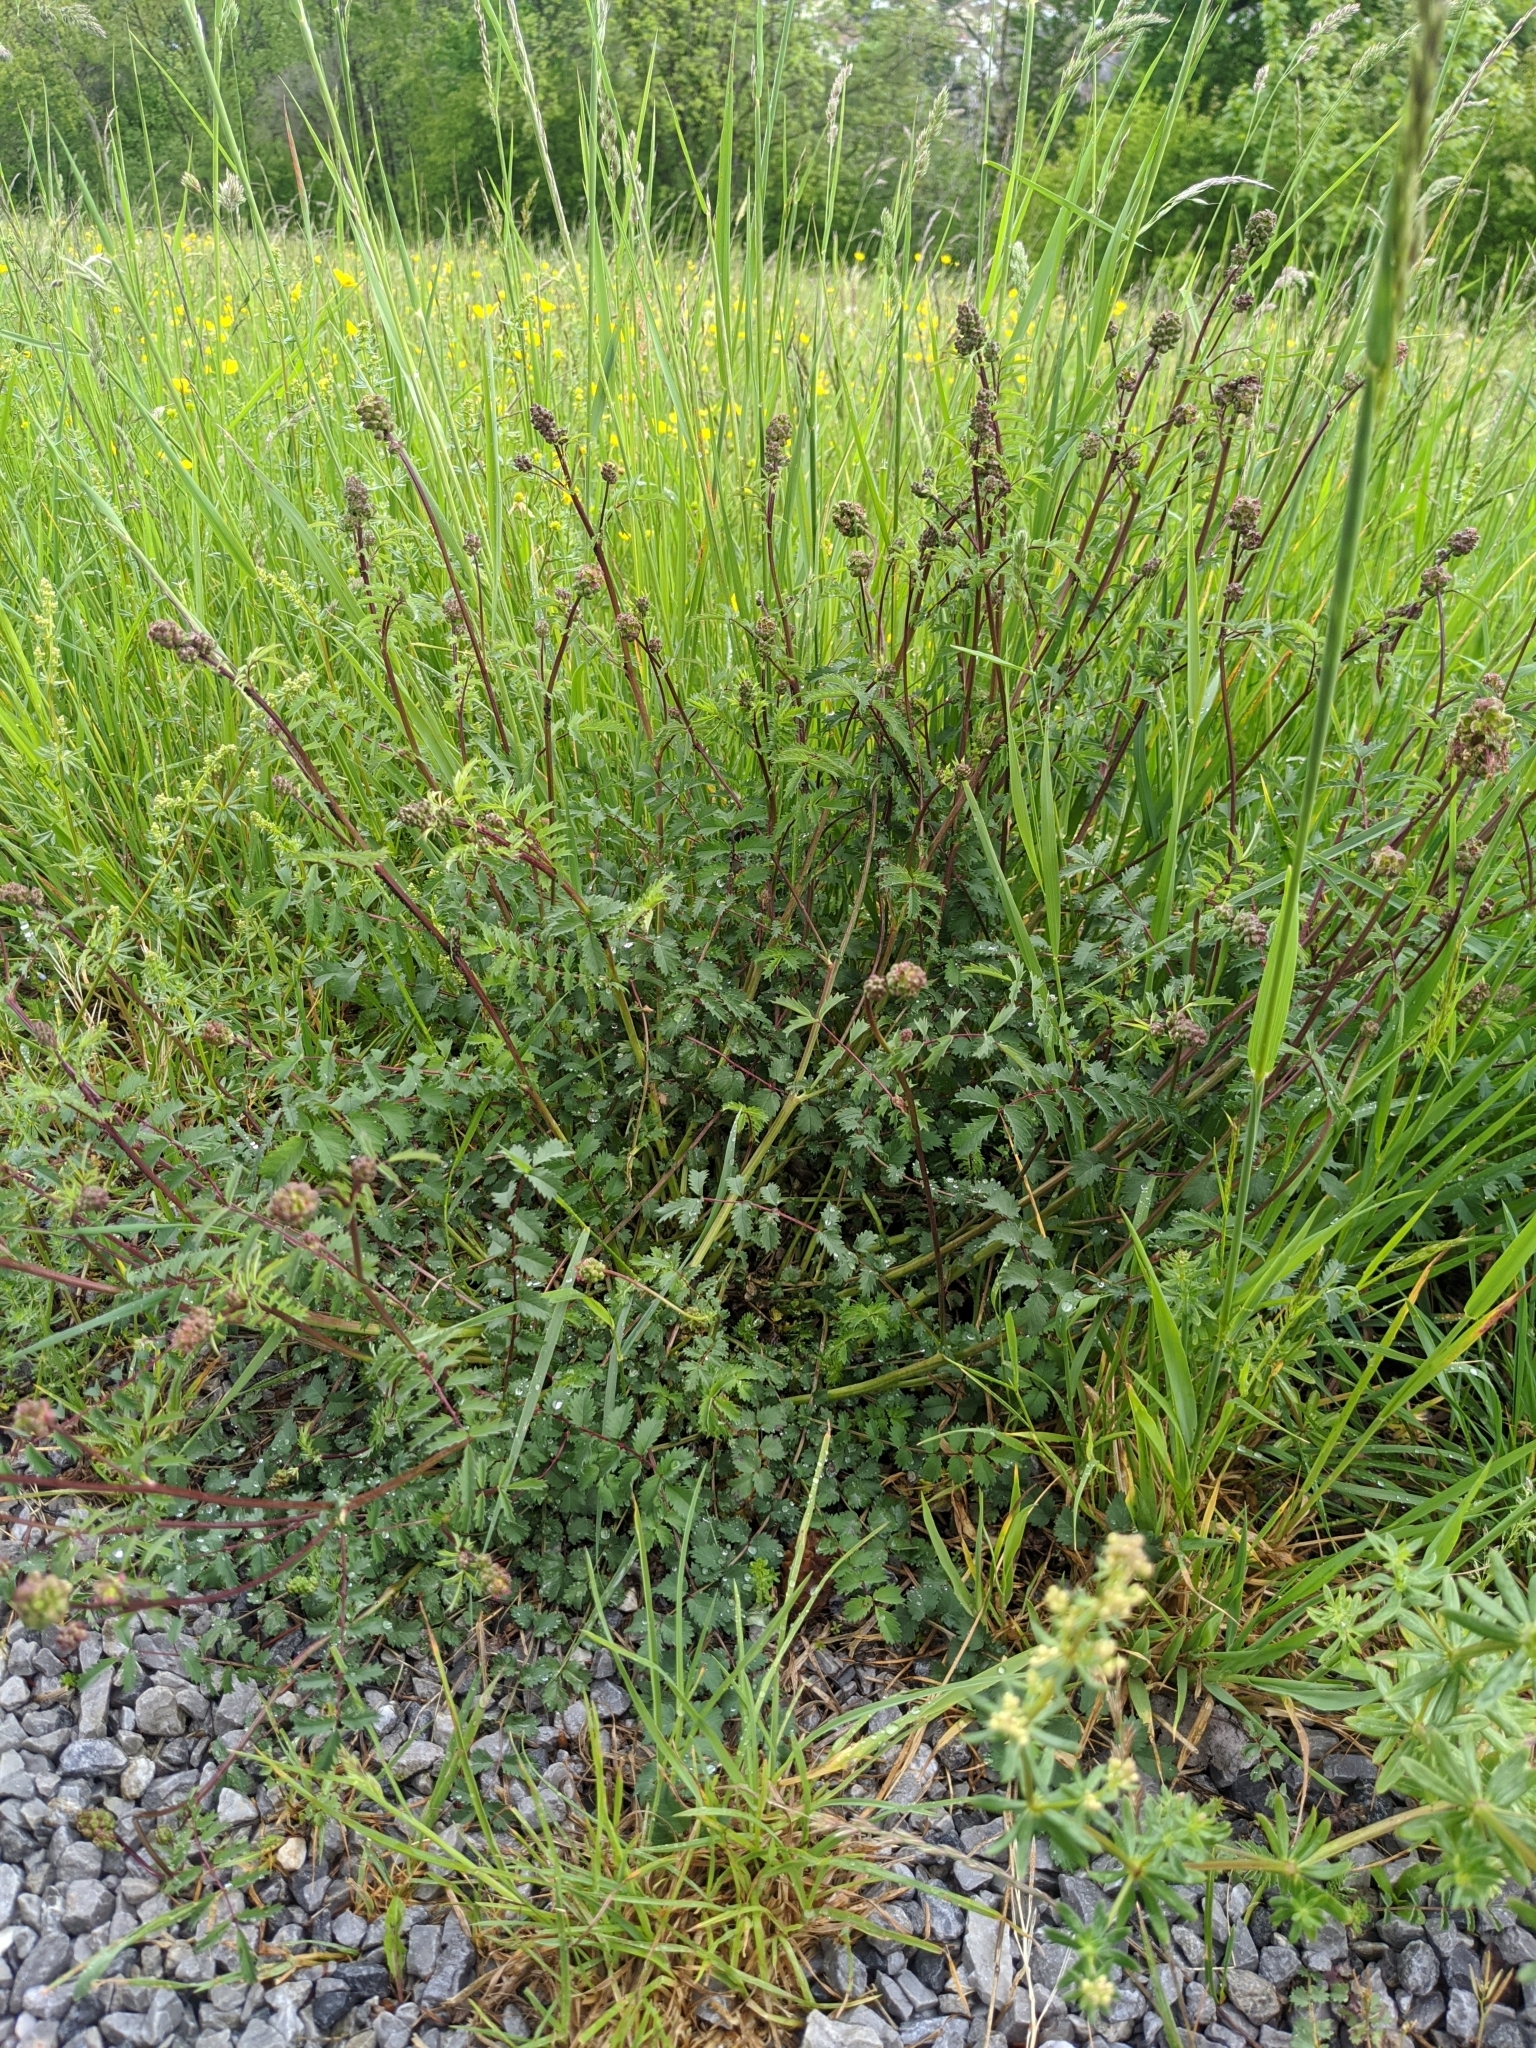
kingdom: Plantae
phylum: Tracheophyta
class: Magnoliopsida
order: Rosales
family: Rosaceae
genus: Poterium
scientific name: Poterium sanguisorba
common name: Salad burnet
